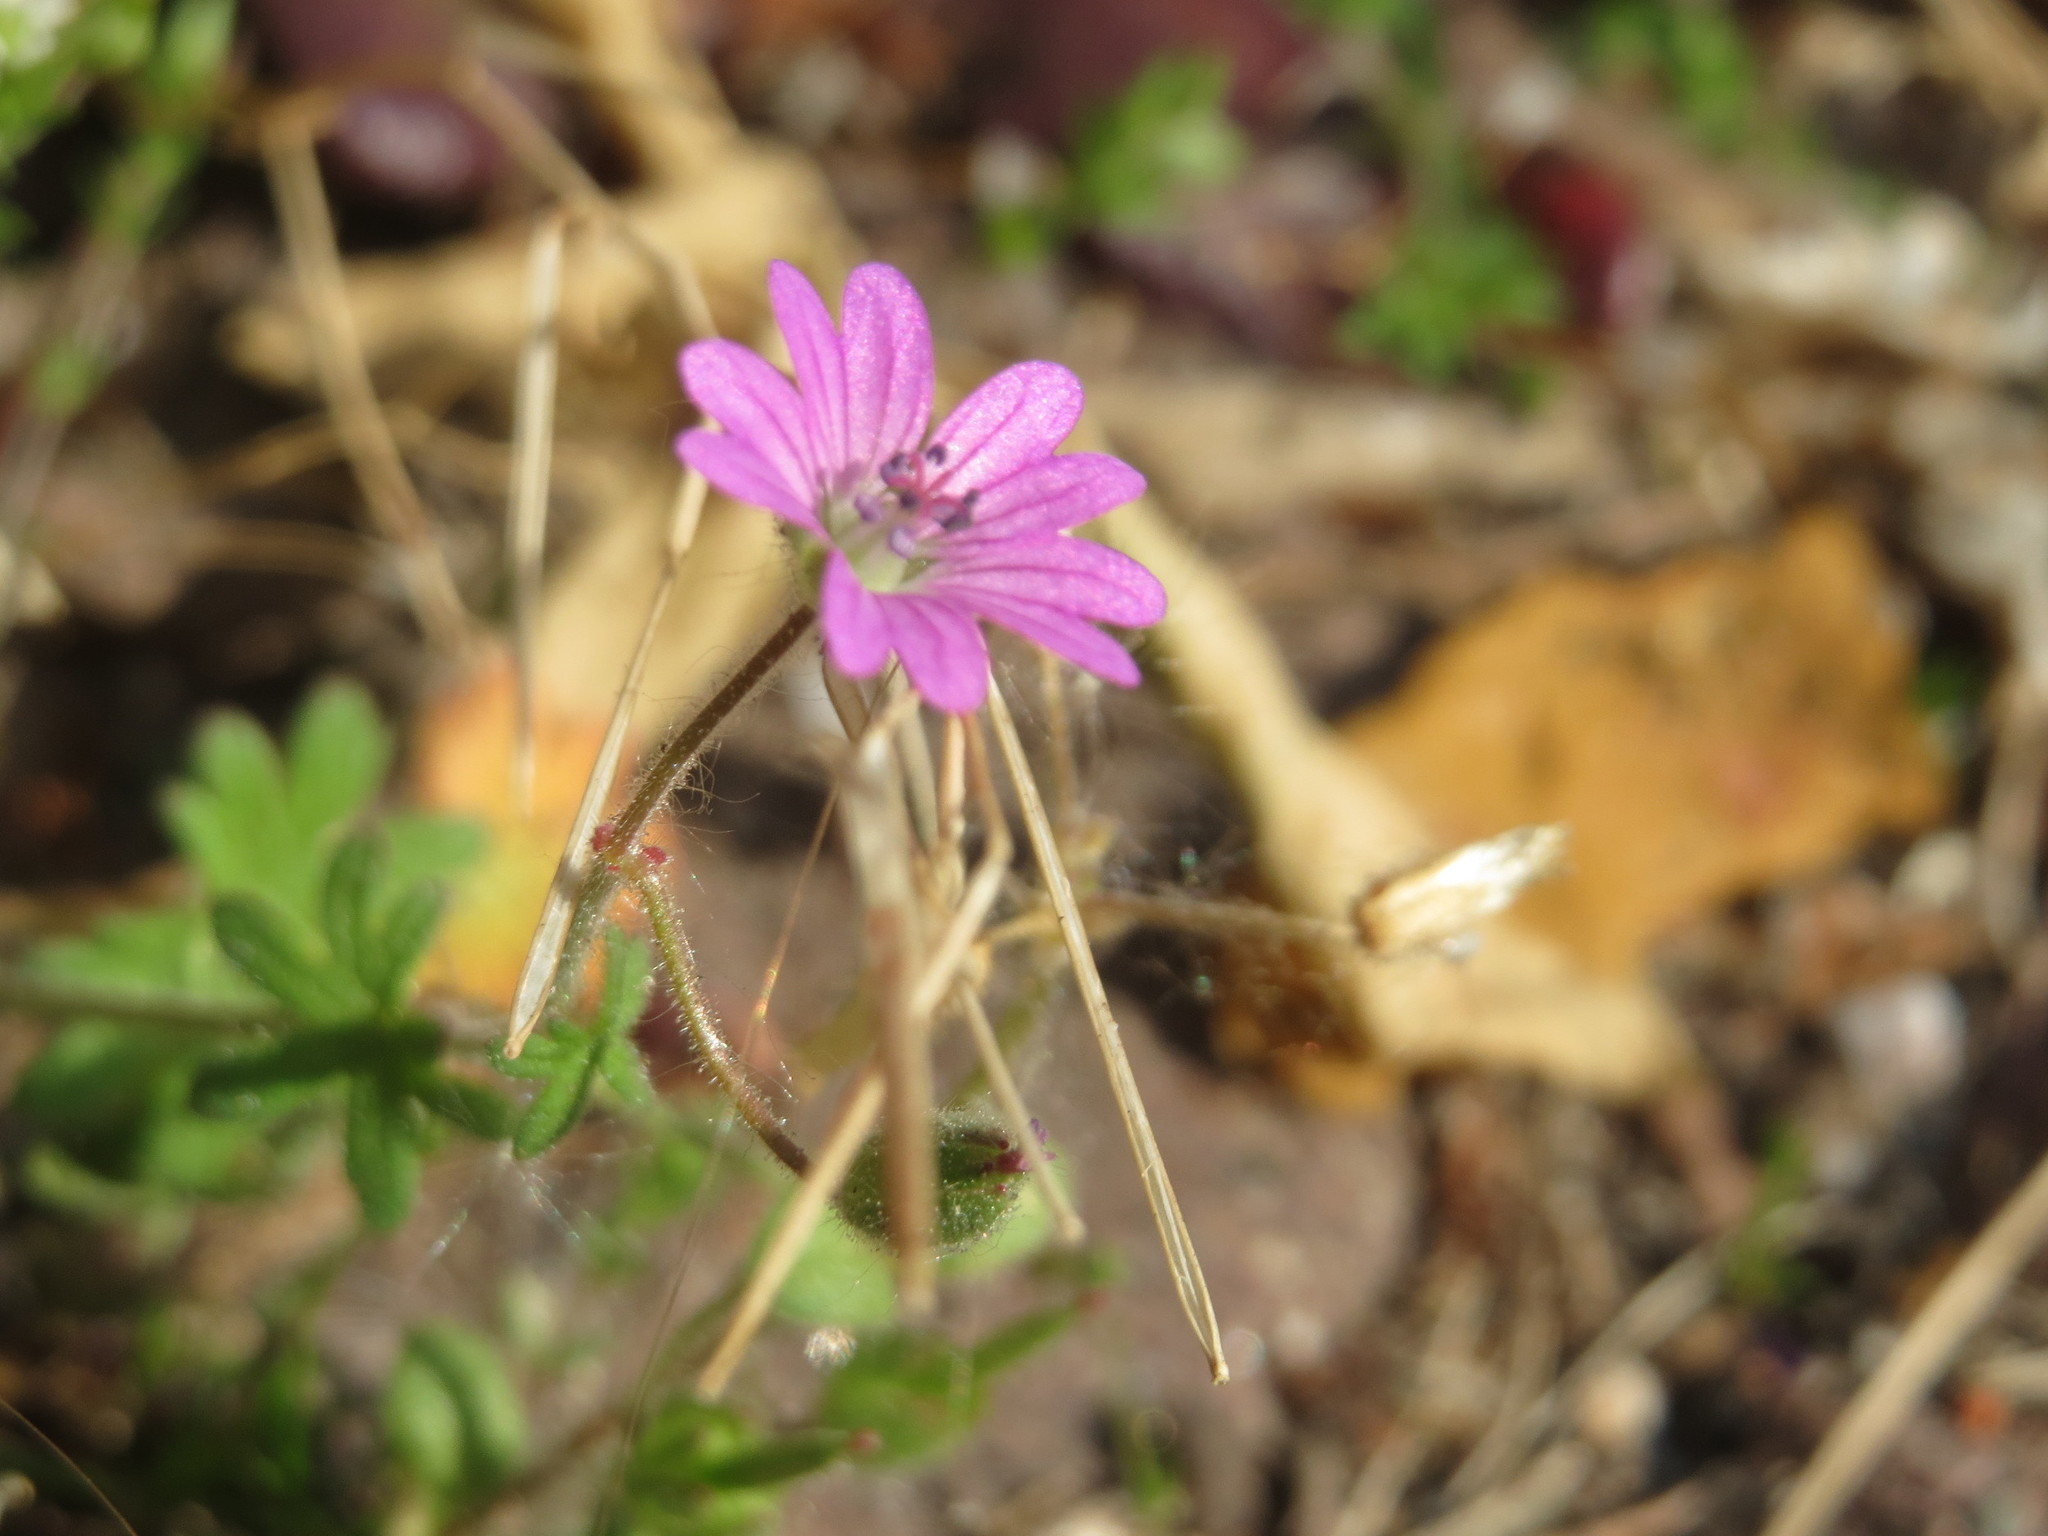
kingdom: Plantae
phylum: Tracheophyta
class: Magnoliopsida
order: Geraniales
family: Geraniaceae
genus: Geranium
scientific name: Geranium molle
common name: Dove's-foot crane's-bill
